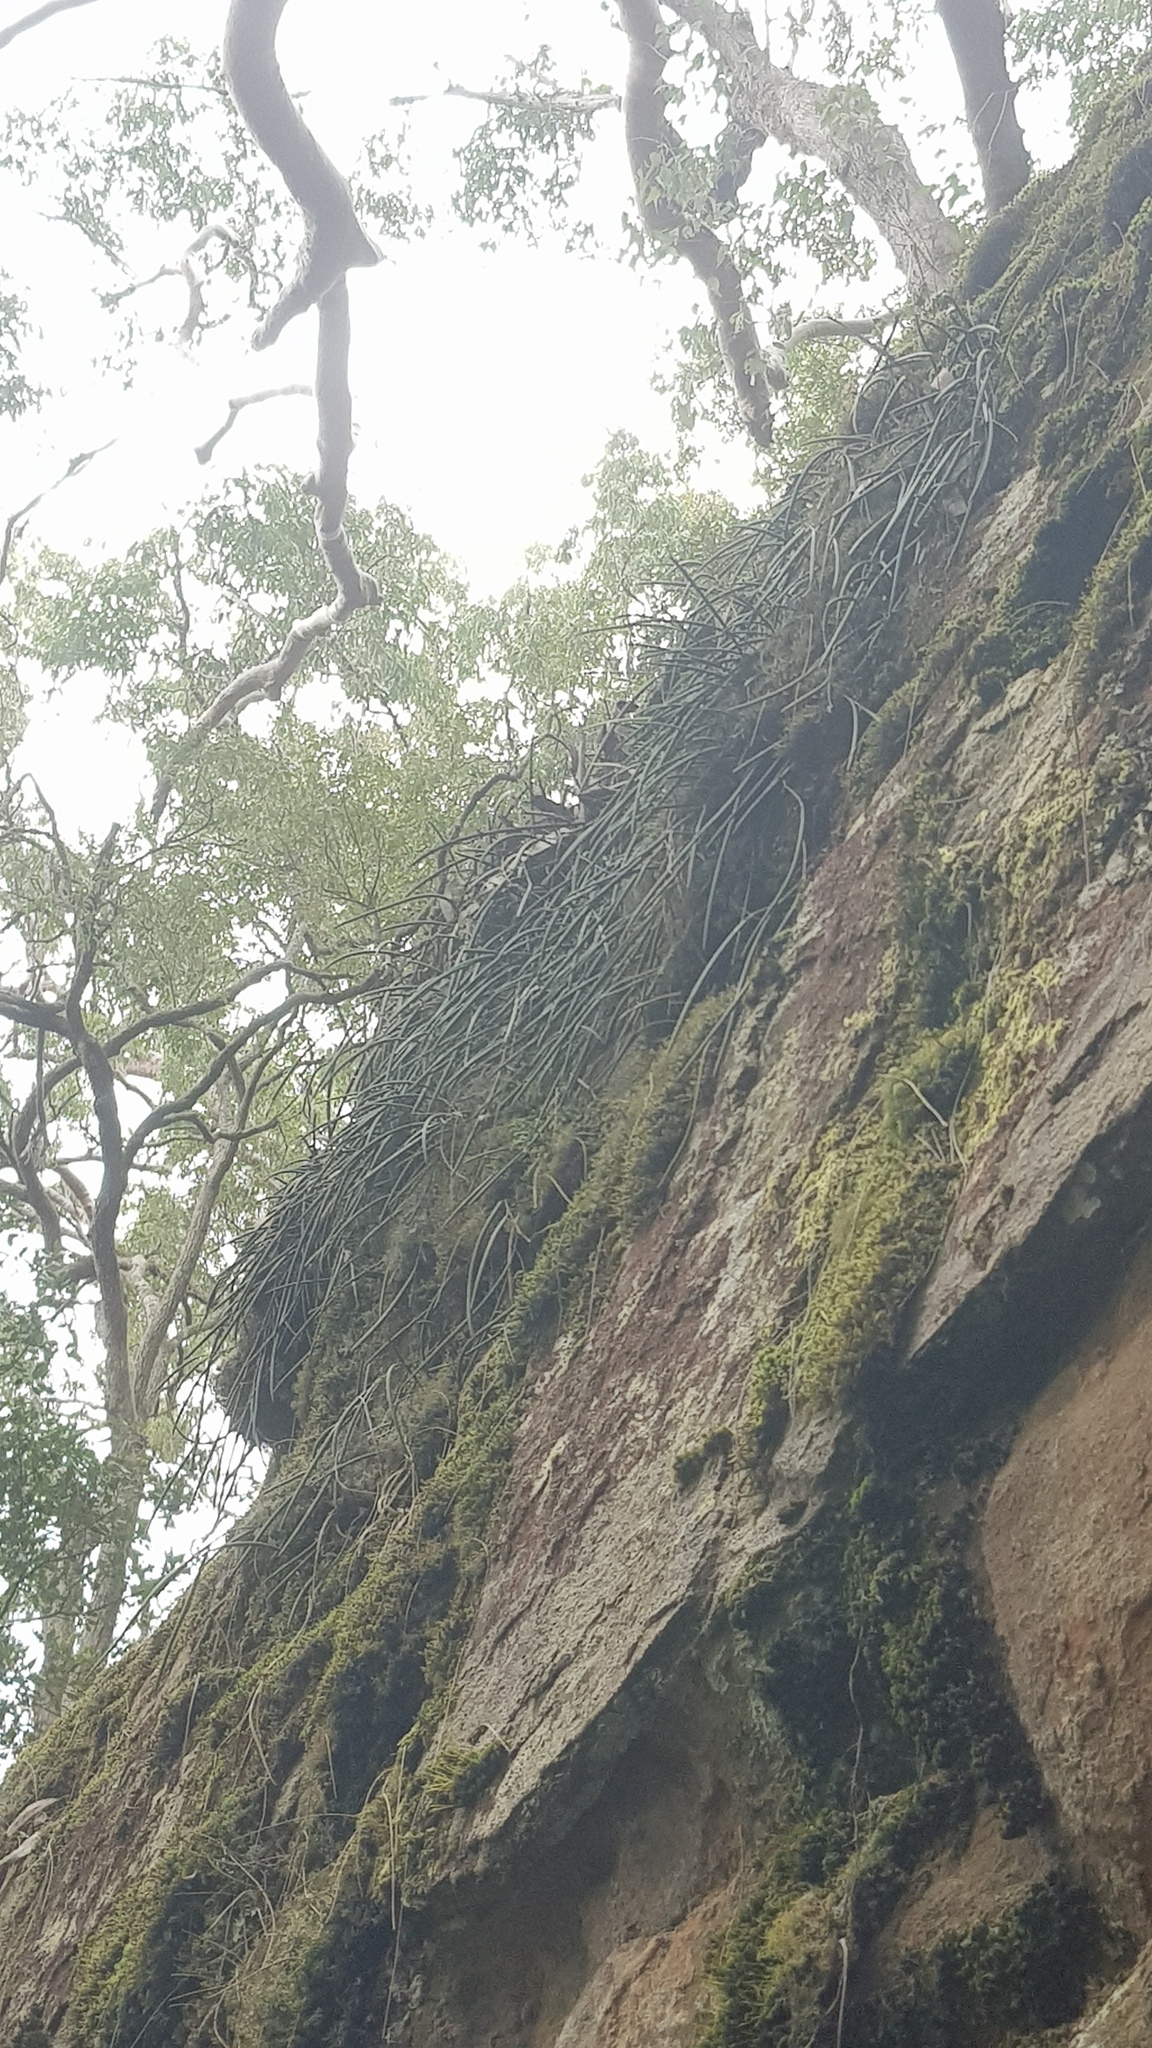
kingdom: Plantae
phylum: Tracheophyta
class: Liliopsida
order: Asparagales
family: Orchidaceae
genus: Dendrobium
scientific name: Dendrobium striolatum
